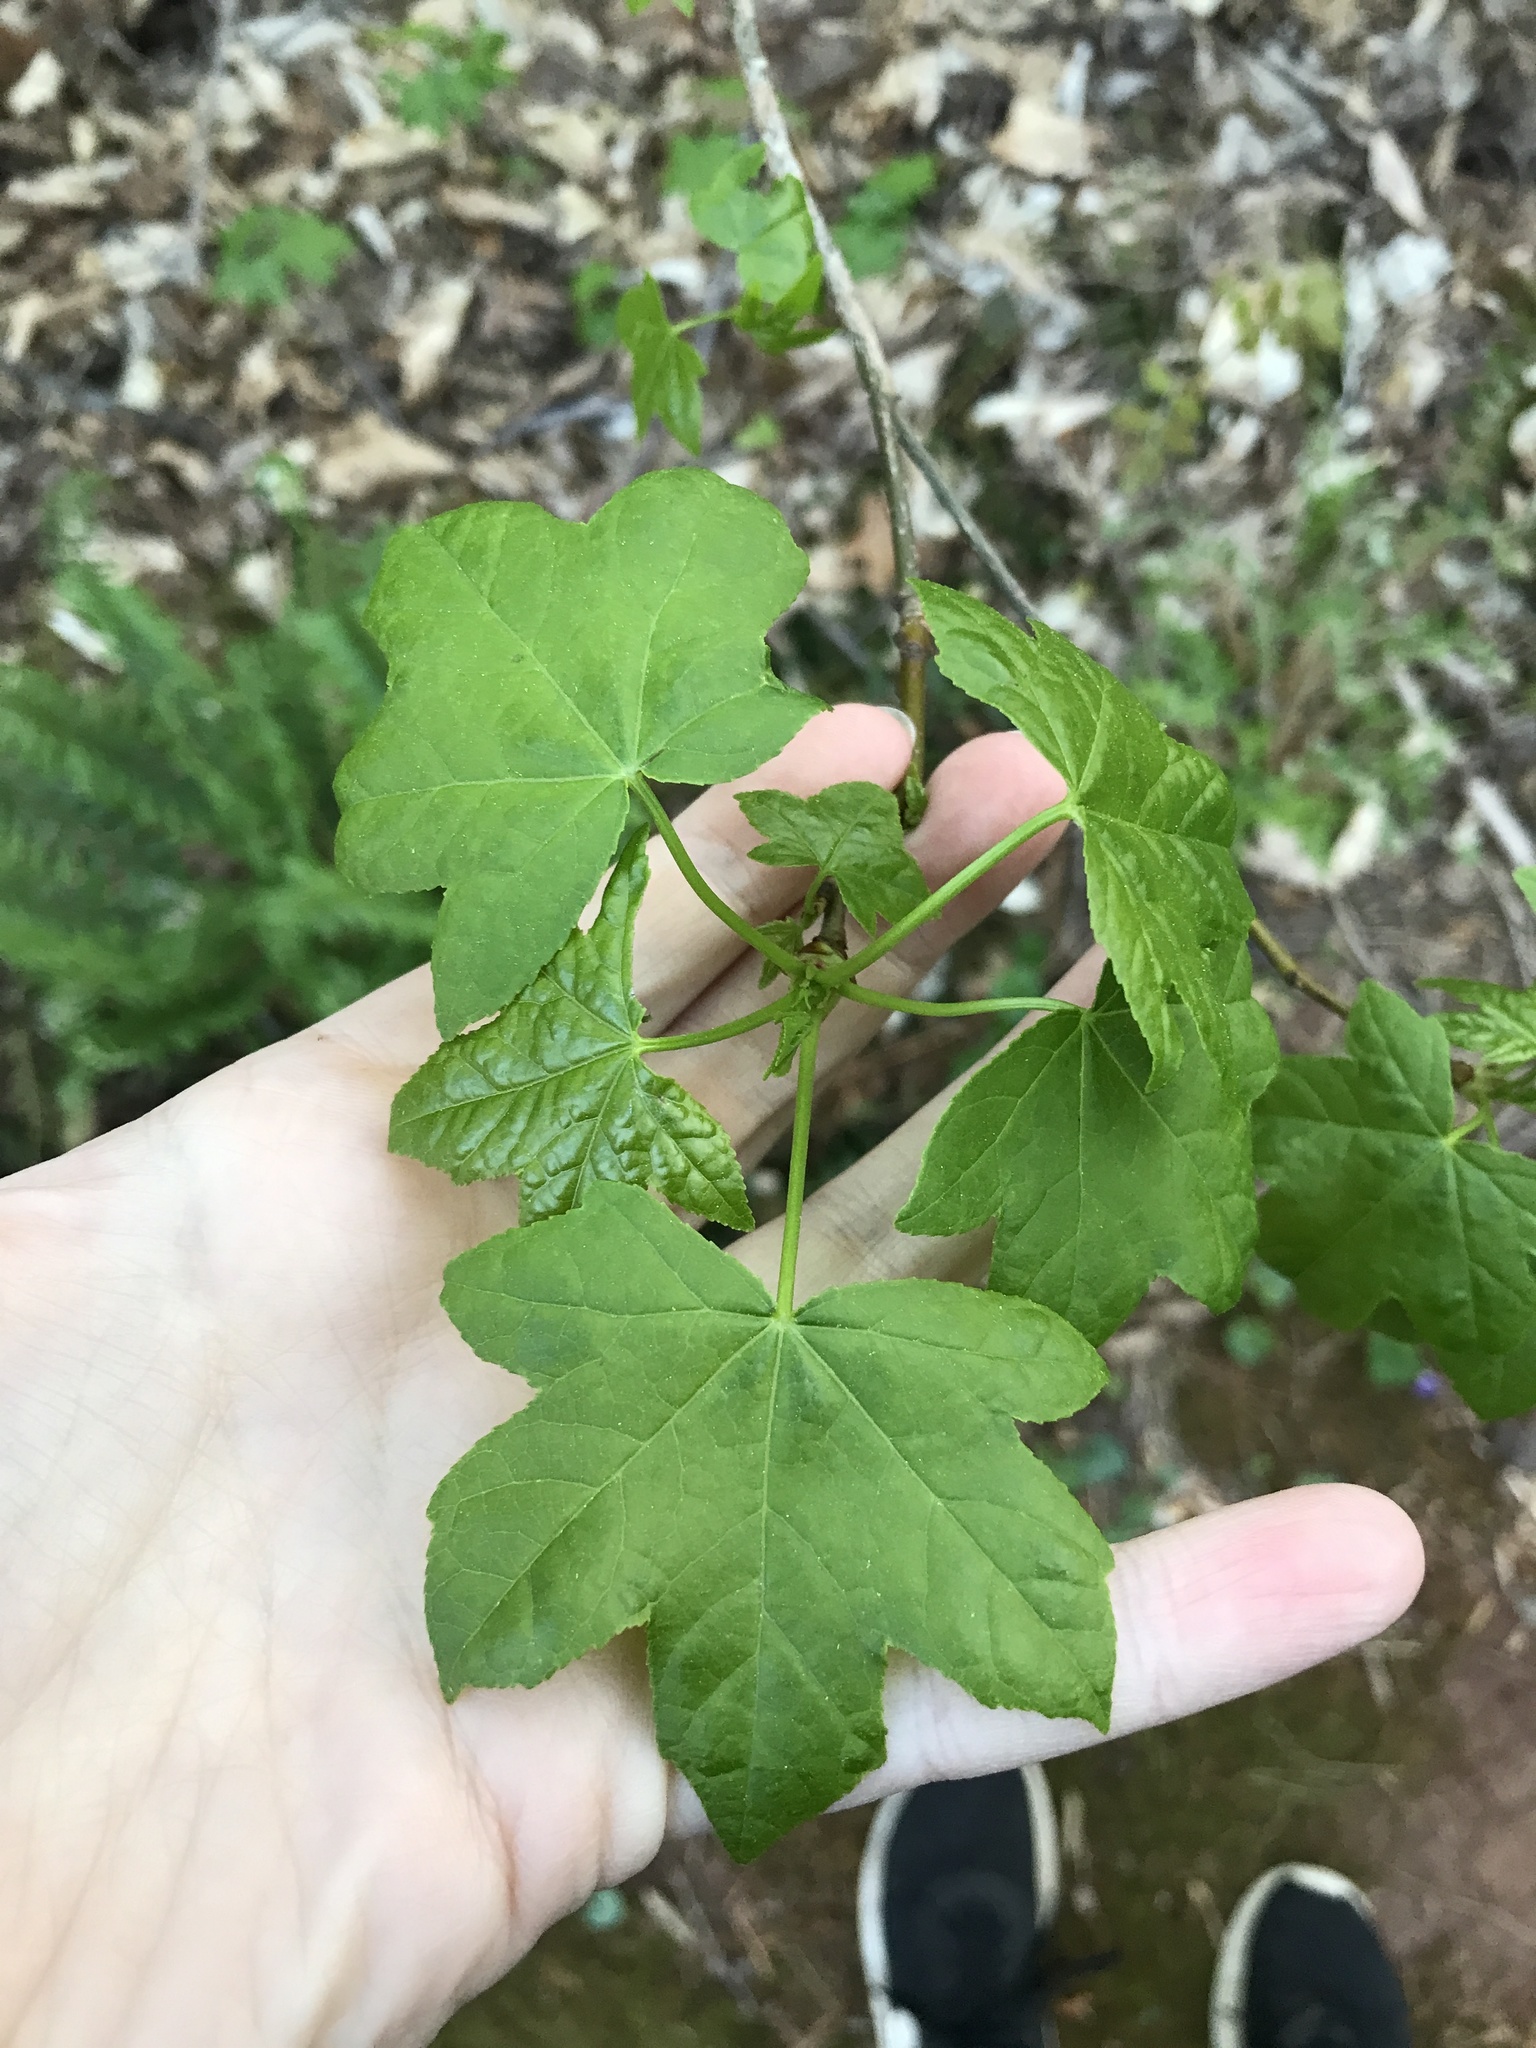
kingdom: Plantae
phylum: Tracheophyta
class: Magnoliopsida
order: Saxifragales
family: Altingiaceae
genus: Liquidambar
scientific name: Liquidambar styraciflua
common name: Sweet gum
